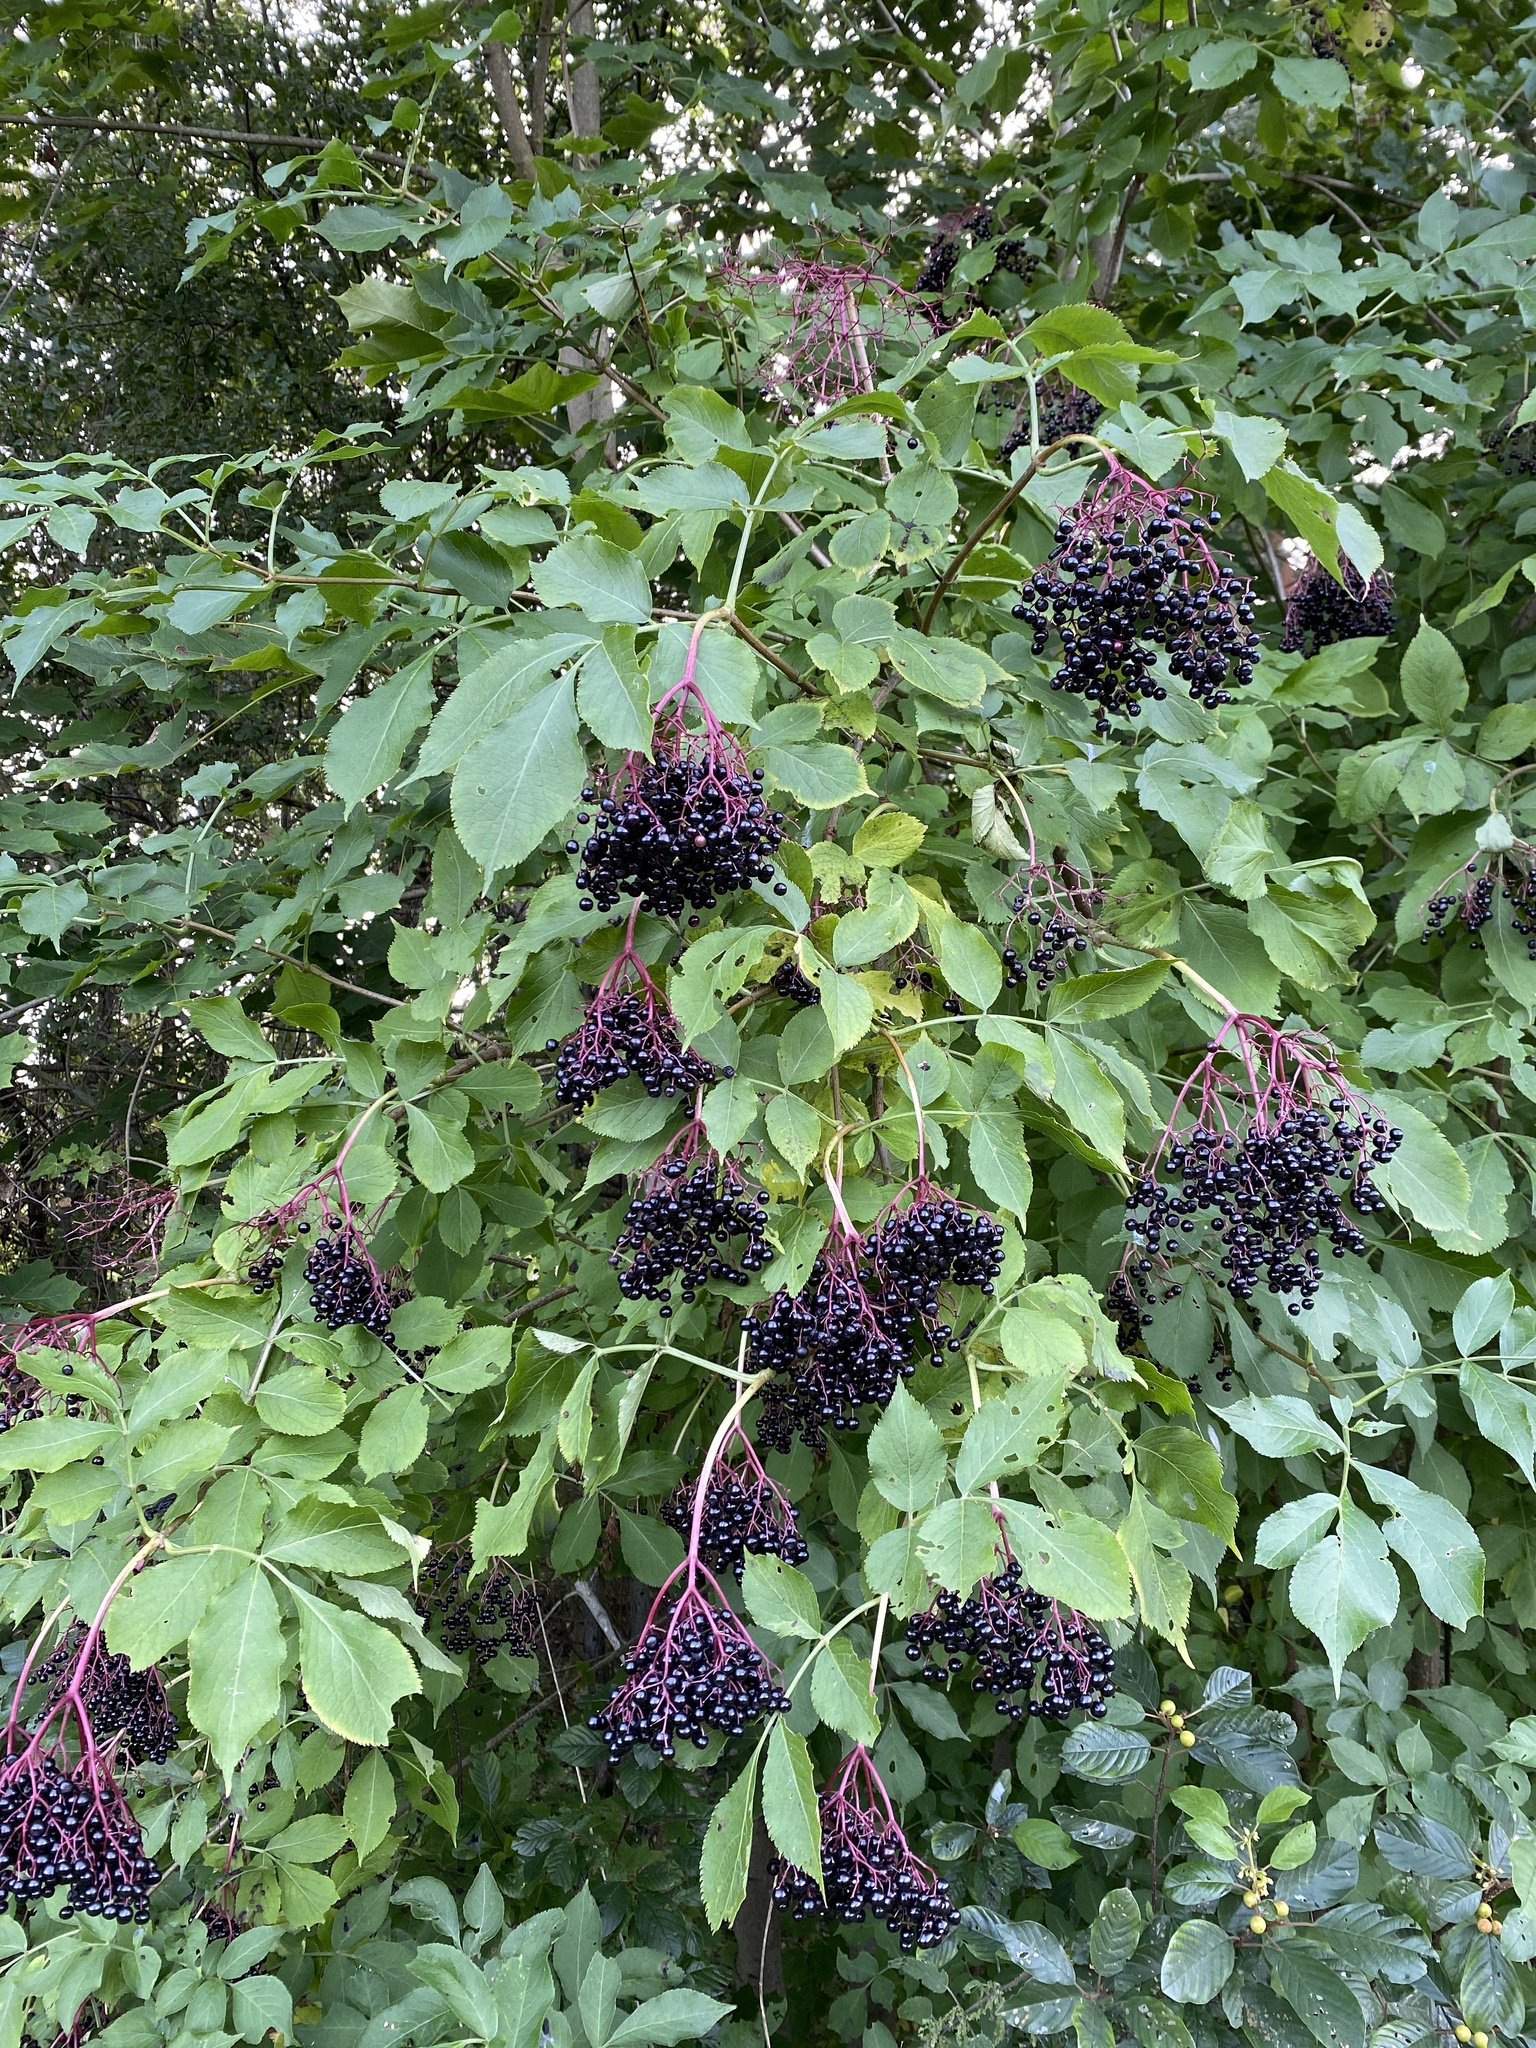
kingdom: Plantae
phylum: Tracheophyta
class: Magnoliopsida
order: Dipsacales
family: Viburnaceae
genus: Sambucus
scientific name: Sambucus nigra
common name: Elder
